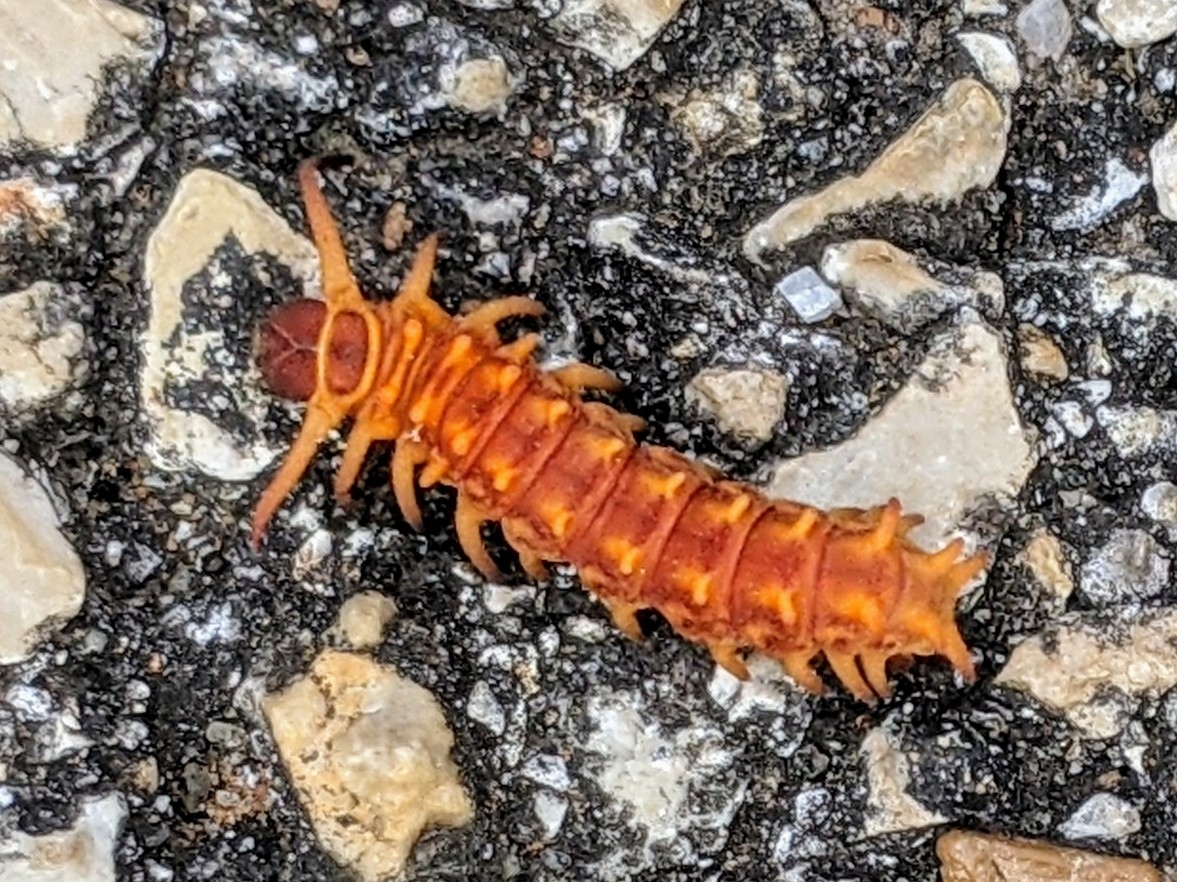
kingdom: Animalia
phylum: Arthropoda
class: Insecta
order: Lepidoptera
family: Papilionidae
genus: Battus
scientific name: Battus philenor
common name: Pipevine swallowtail
